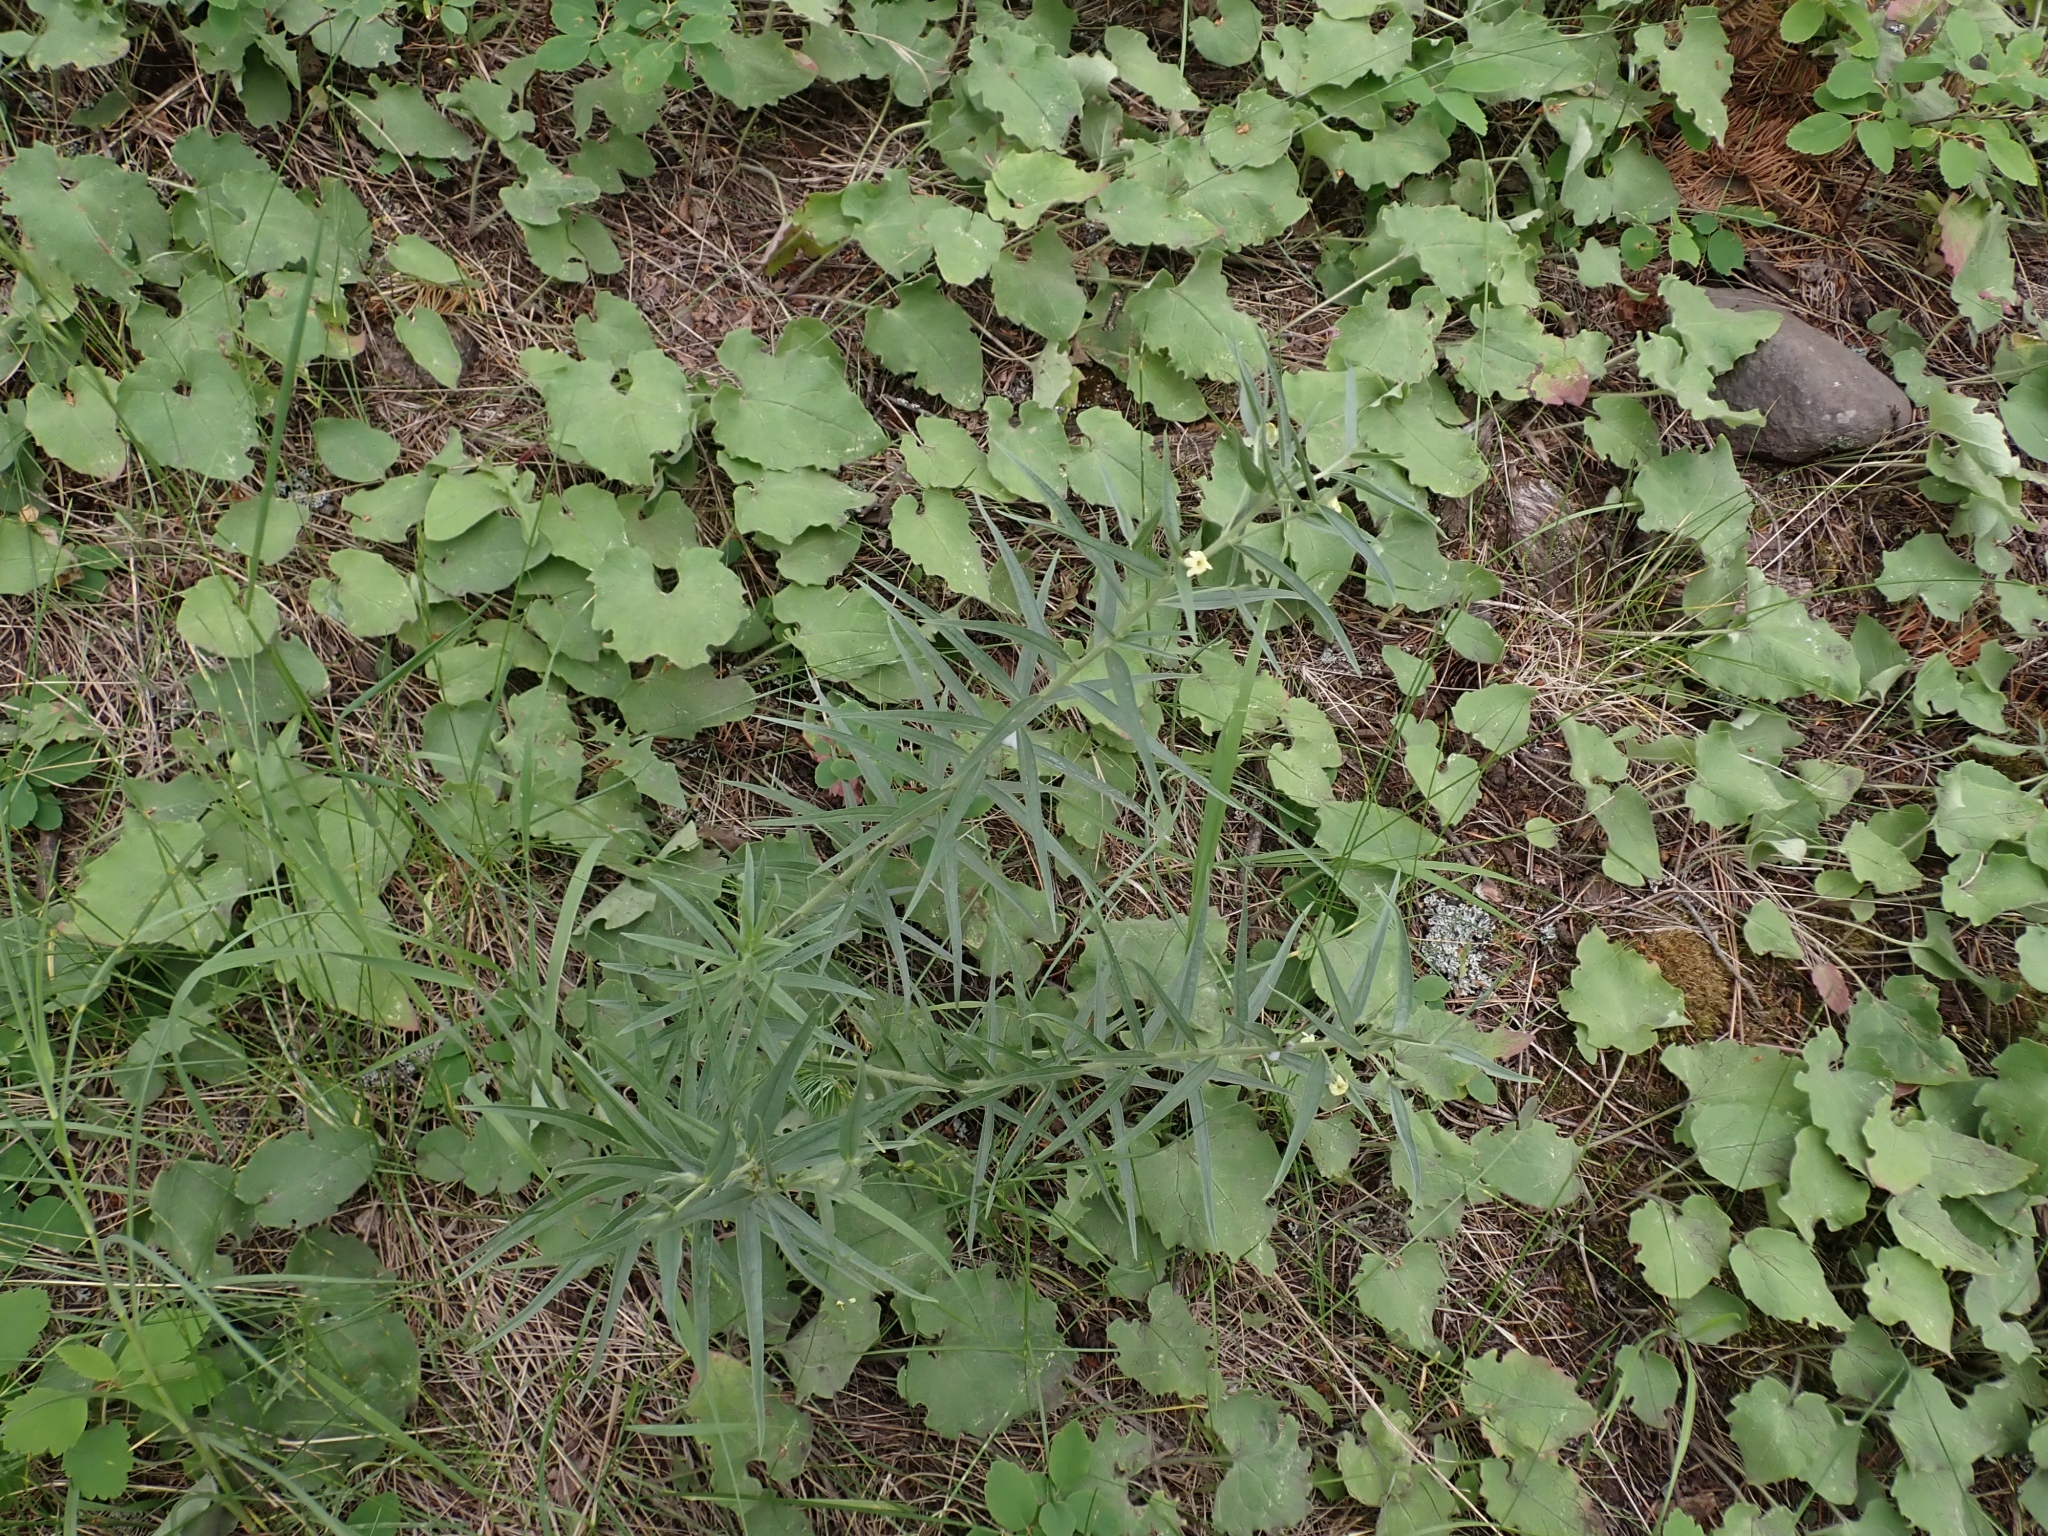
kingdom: Plantae
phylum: Tracheophyta
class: Magnoliopsida
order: Boraginales
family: Boraginaceae
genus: Lithospermum
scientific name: Lithospermum ruderale
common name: Western gromwell
